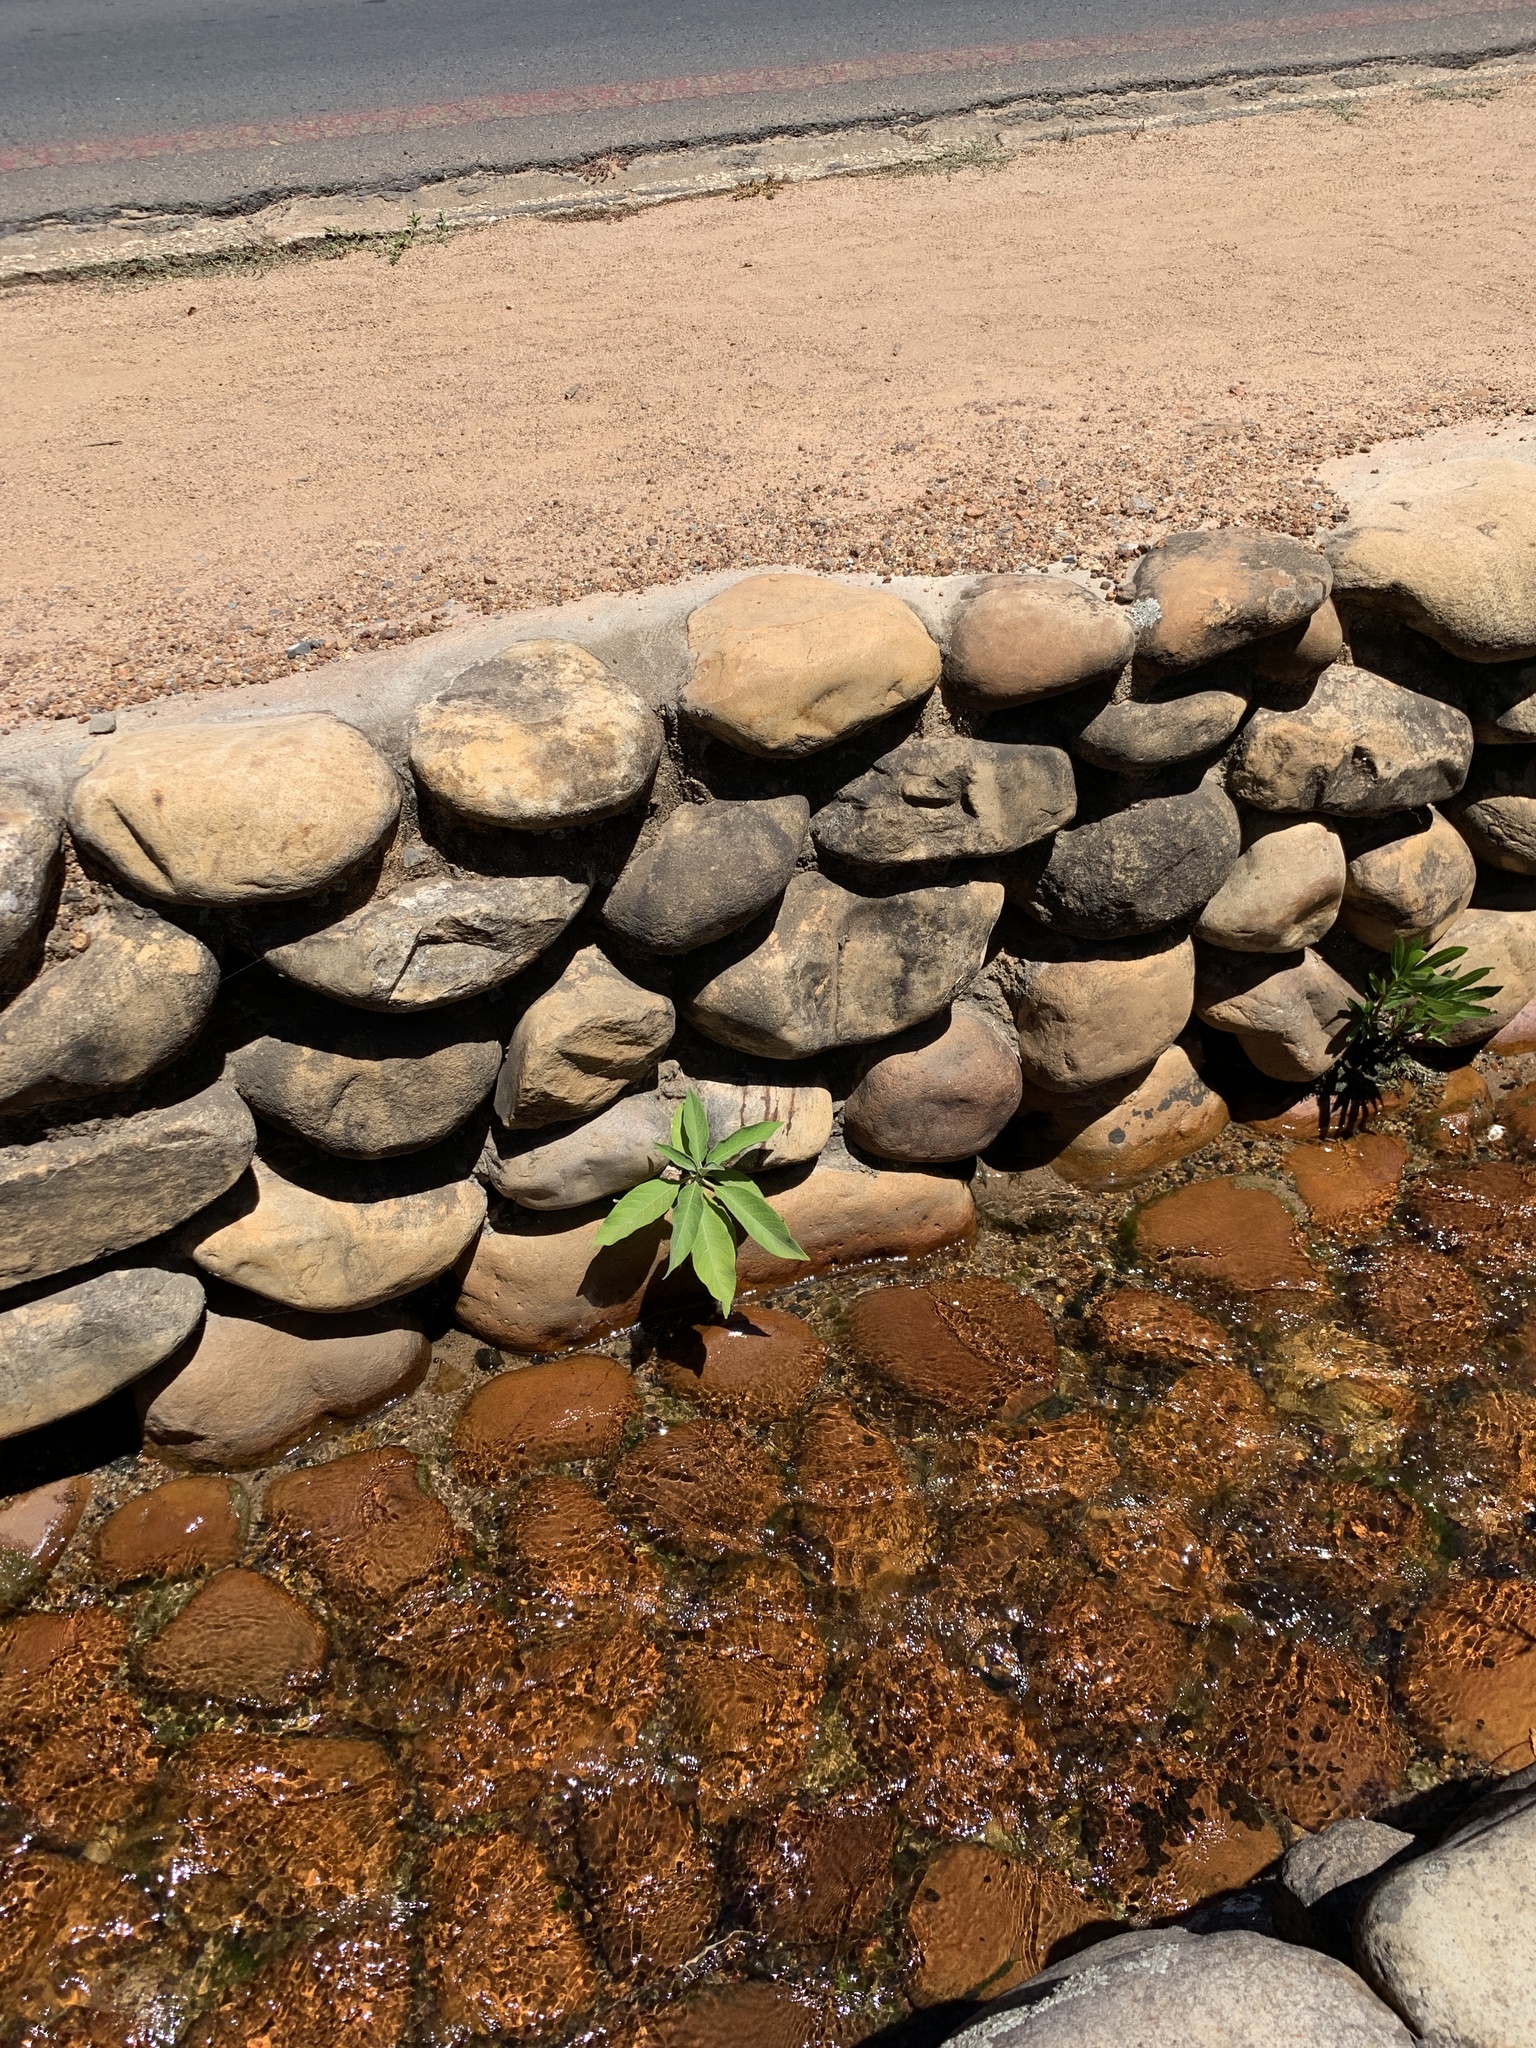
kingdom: Plantae
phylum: Tracheophyta
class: Magnoliopsida
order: Solanales
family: Solanaceae
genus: Solanum
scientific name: Solanum mauritianum
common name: Earleaf nightshade
